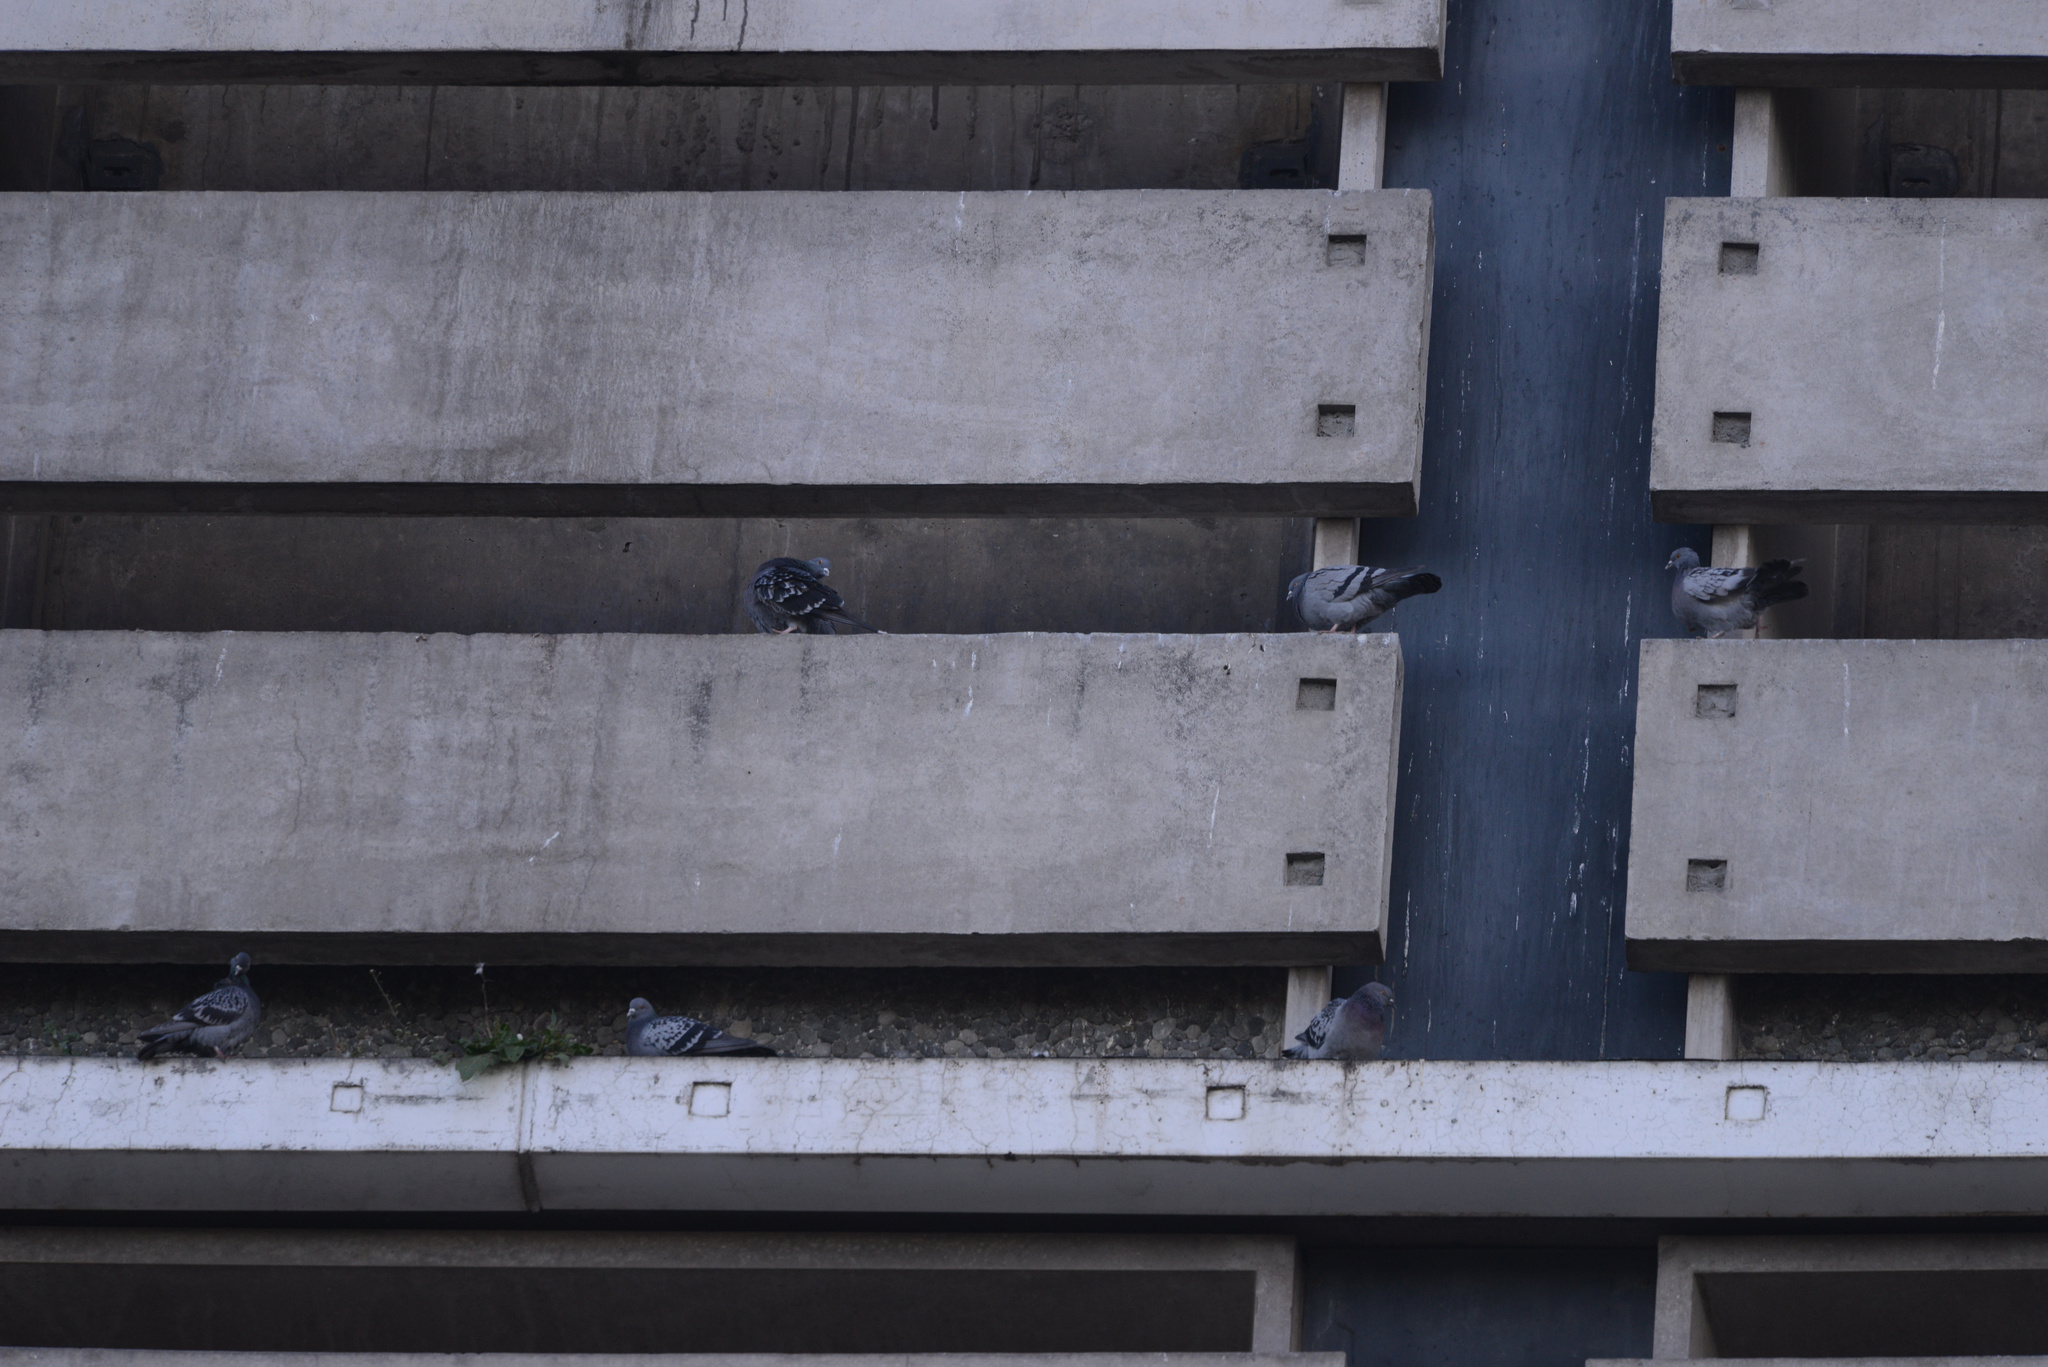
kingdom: Animalia
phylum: Chordata
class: Aves
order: Columbiformes
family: Columbidae
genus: Columba
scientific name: Columba livia
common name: Rock pigeon
